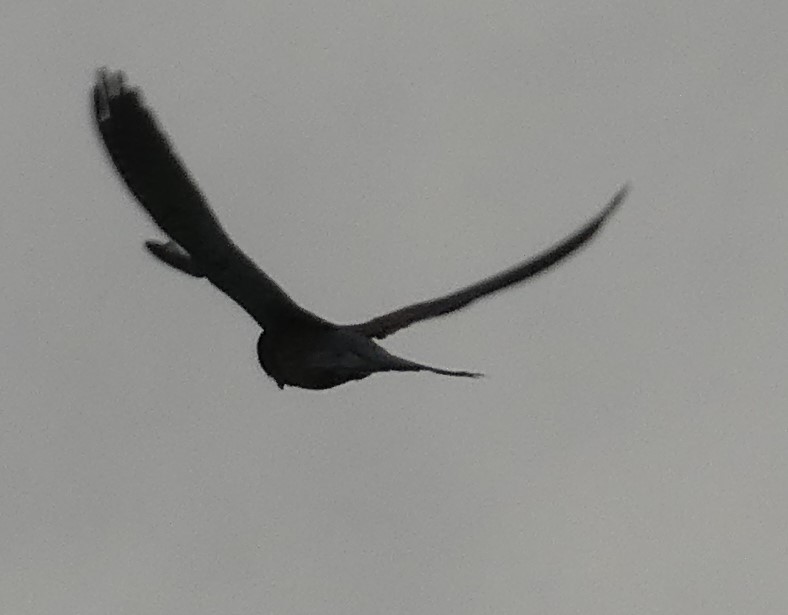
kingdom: Animalia
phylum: Chordata
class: Aves
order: Falconiformes
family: Falconidae
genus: Falco
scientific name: Falco tinnunculus
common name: Common kestrel
